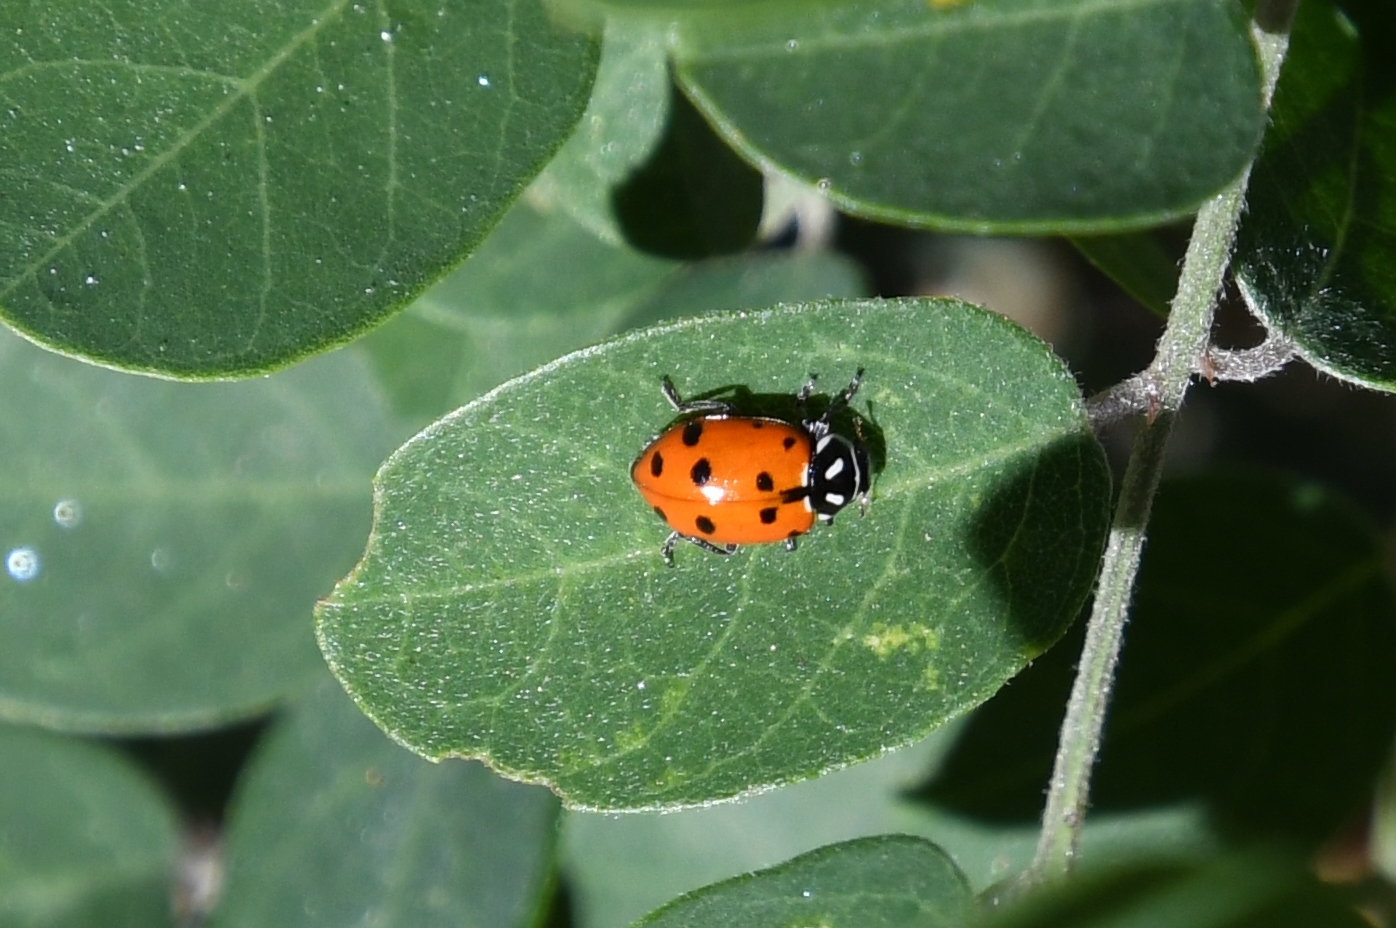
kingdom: Animalia
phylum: Arthropoda
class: Insecta
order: Coleoptera
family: Coccinellidae
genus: Hippodamia
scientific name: Hippodamia convergens
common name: Convergent lady beetle
